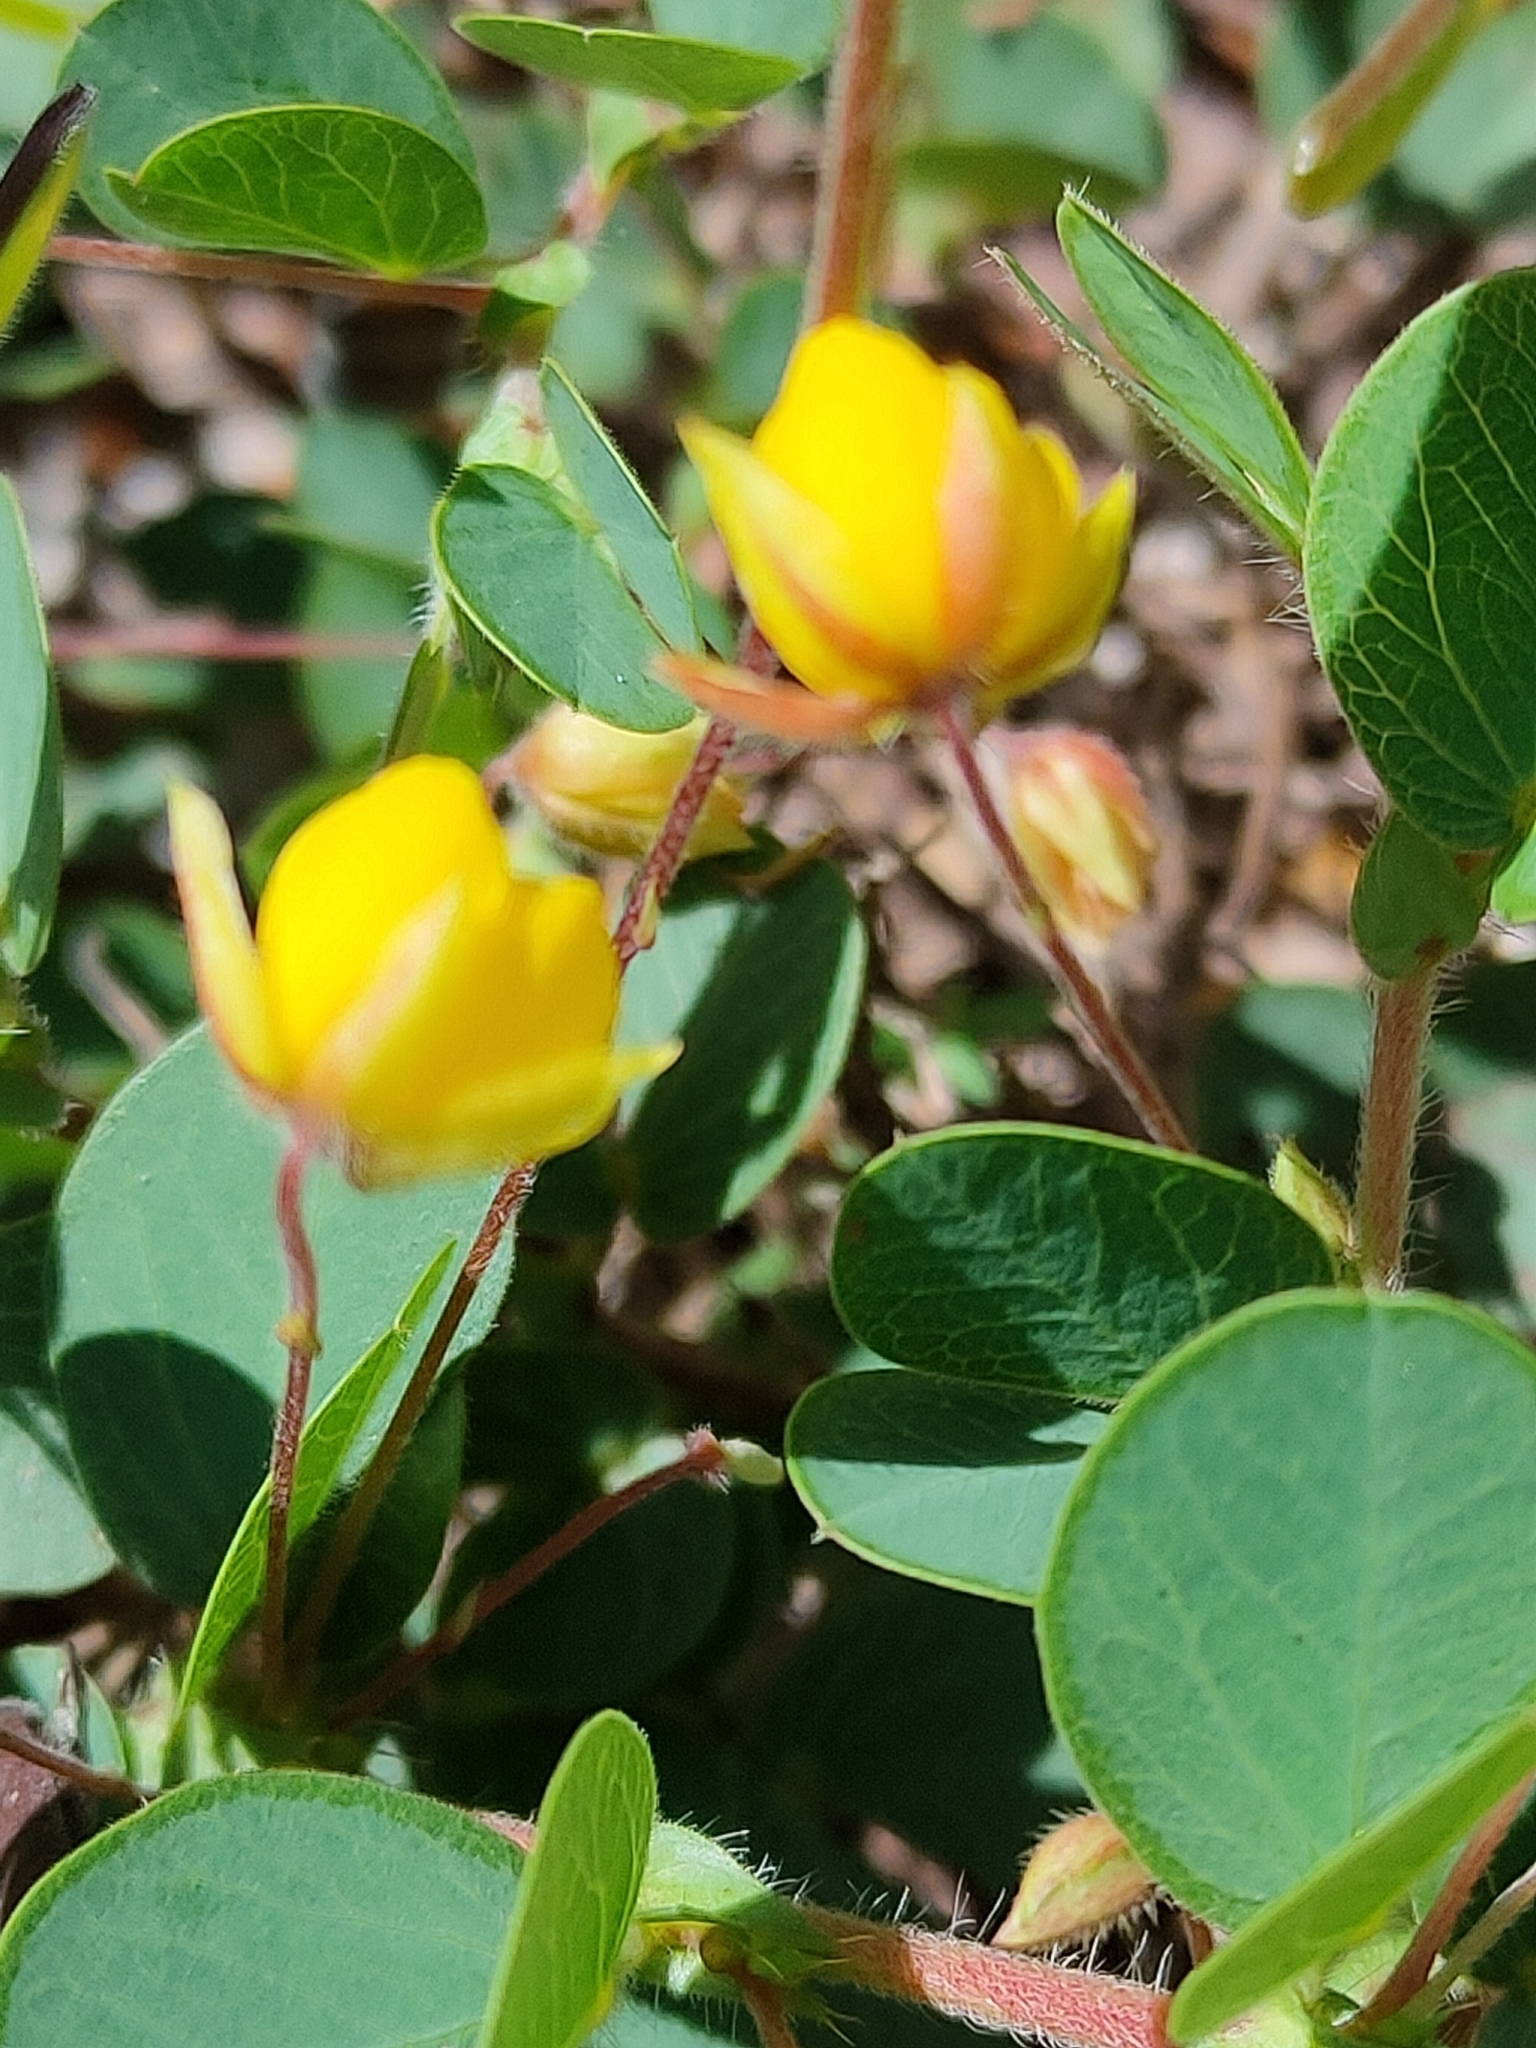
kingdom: Plantae
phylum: Tracheophyta
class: Magnoliopsida
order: Fabales
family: Fabaceae
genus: Chamaecrista
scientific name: Chamaecrista rotundifolia
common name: Round-leaf cassia
